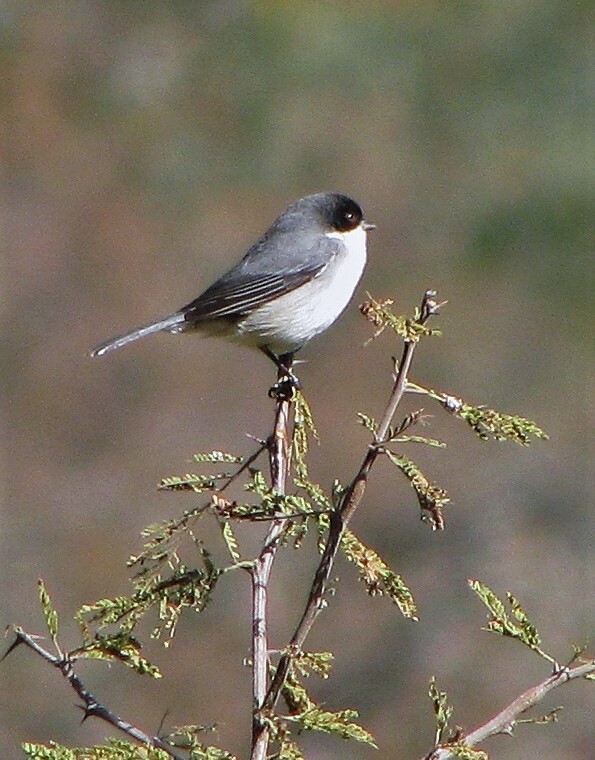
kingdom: Animalia
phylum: Chordata
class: Aves
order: Passeriformes
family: Thraupidae
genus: Microspingus
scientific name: Microspingus melanoleucus
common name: Black-capped warbling-finch
